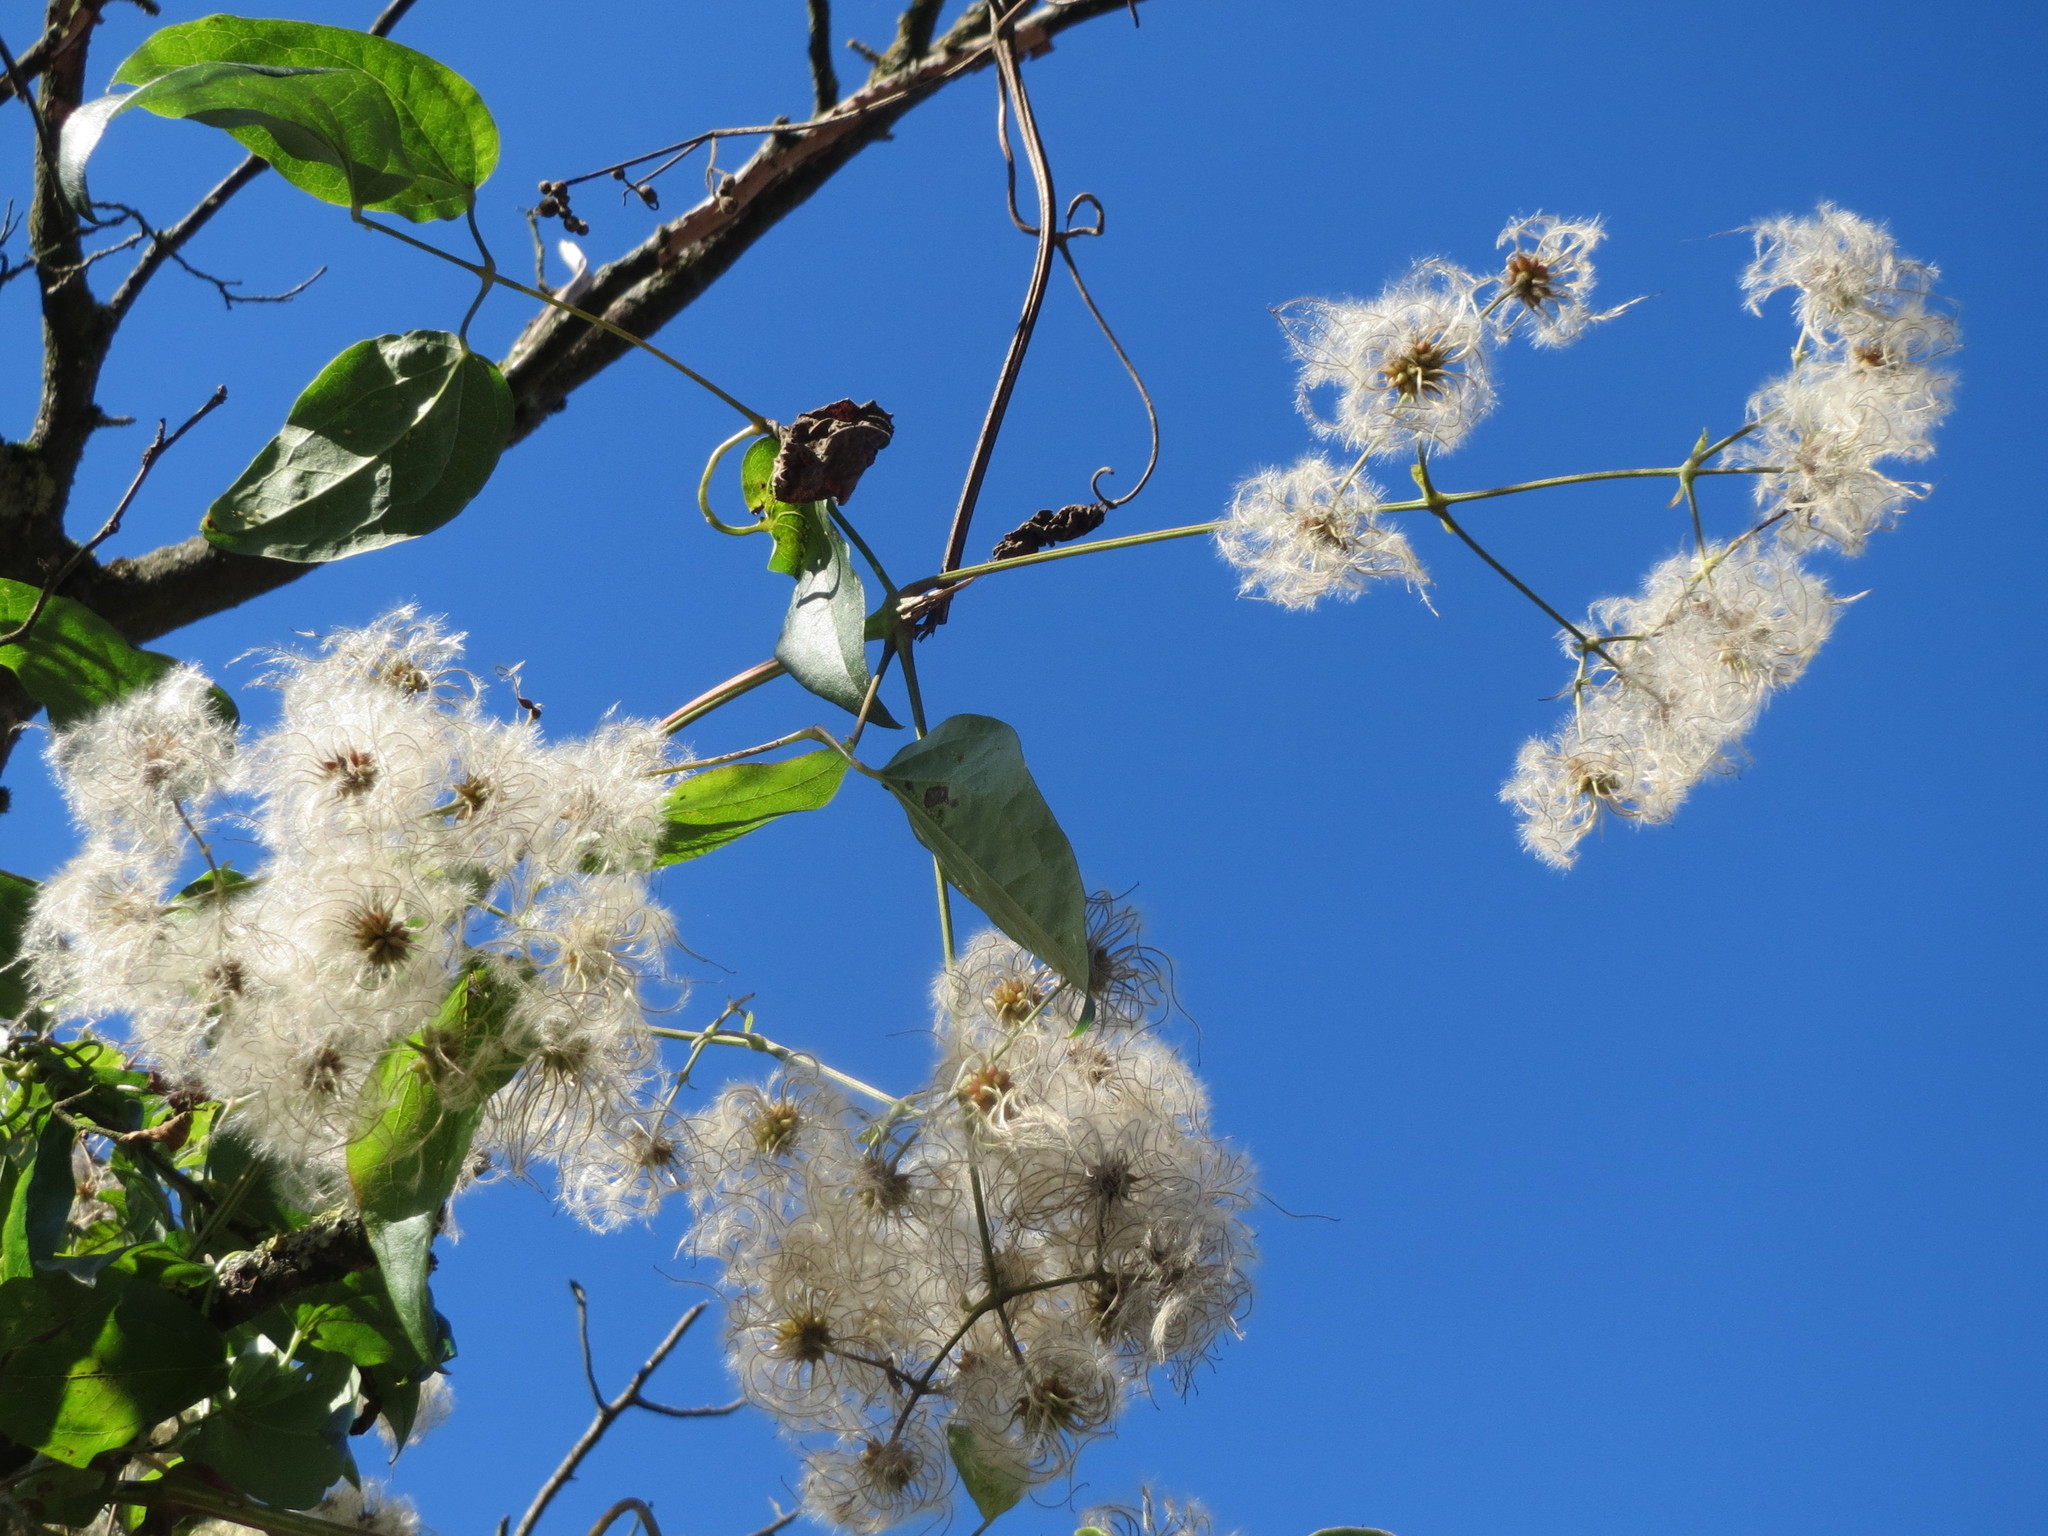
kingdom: Plantae
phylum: Tracheophyta
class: Magnoliopsida
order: Ranunculales
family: Ranunculaceae
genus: Clematis
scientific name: Clematis vitalba
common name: Evergreen clematis
